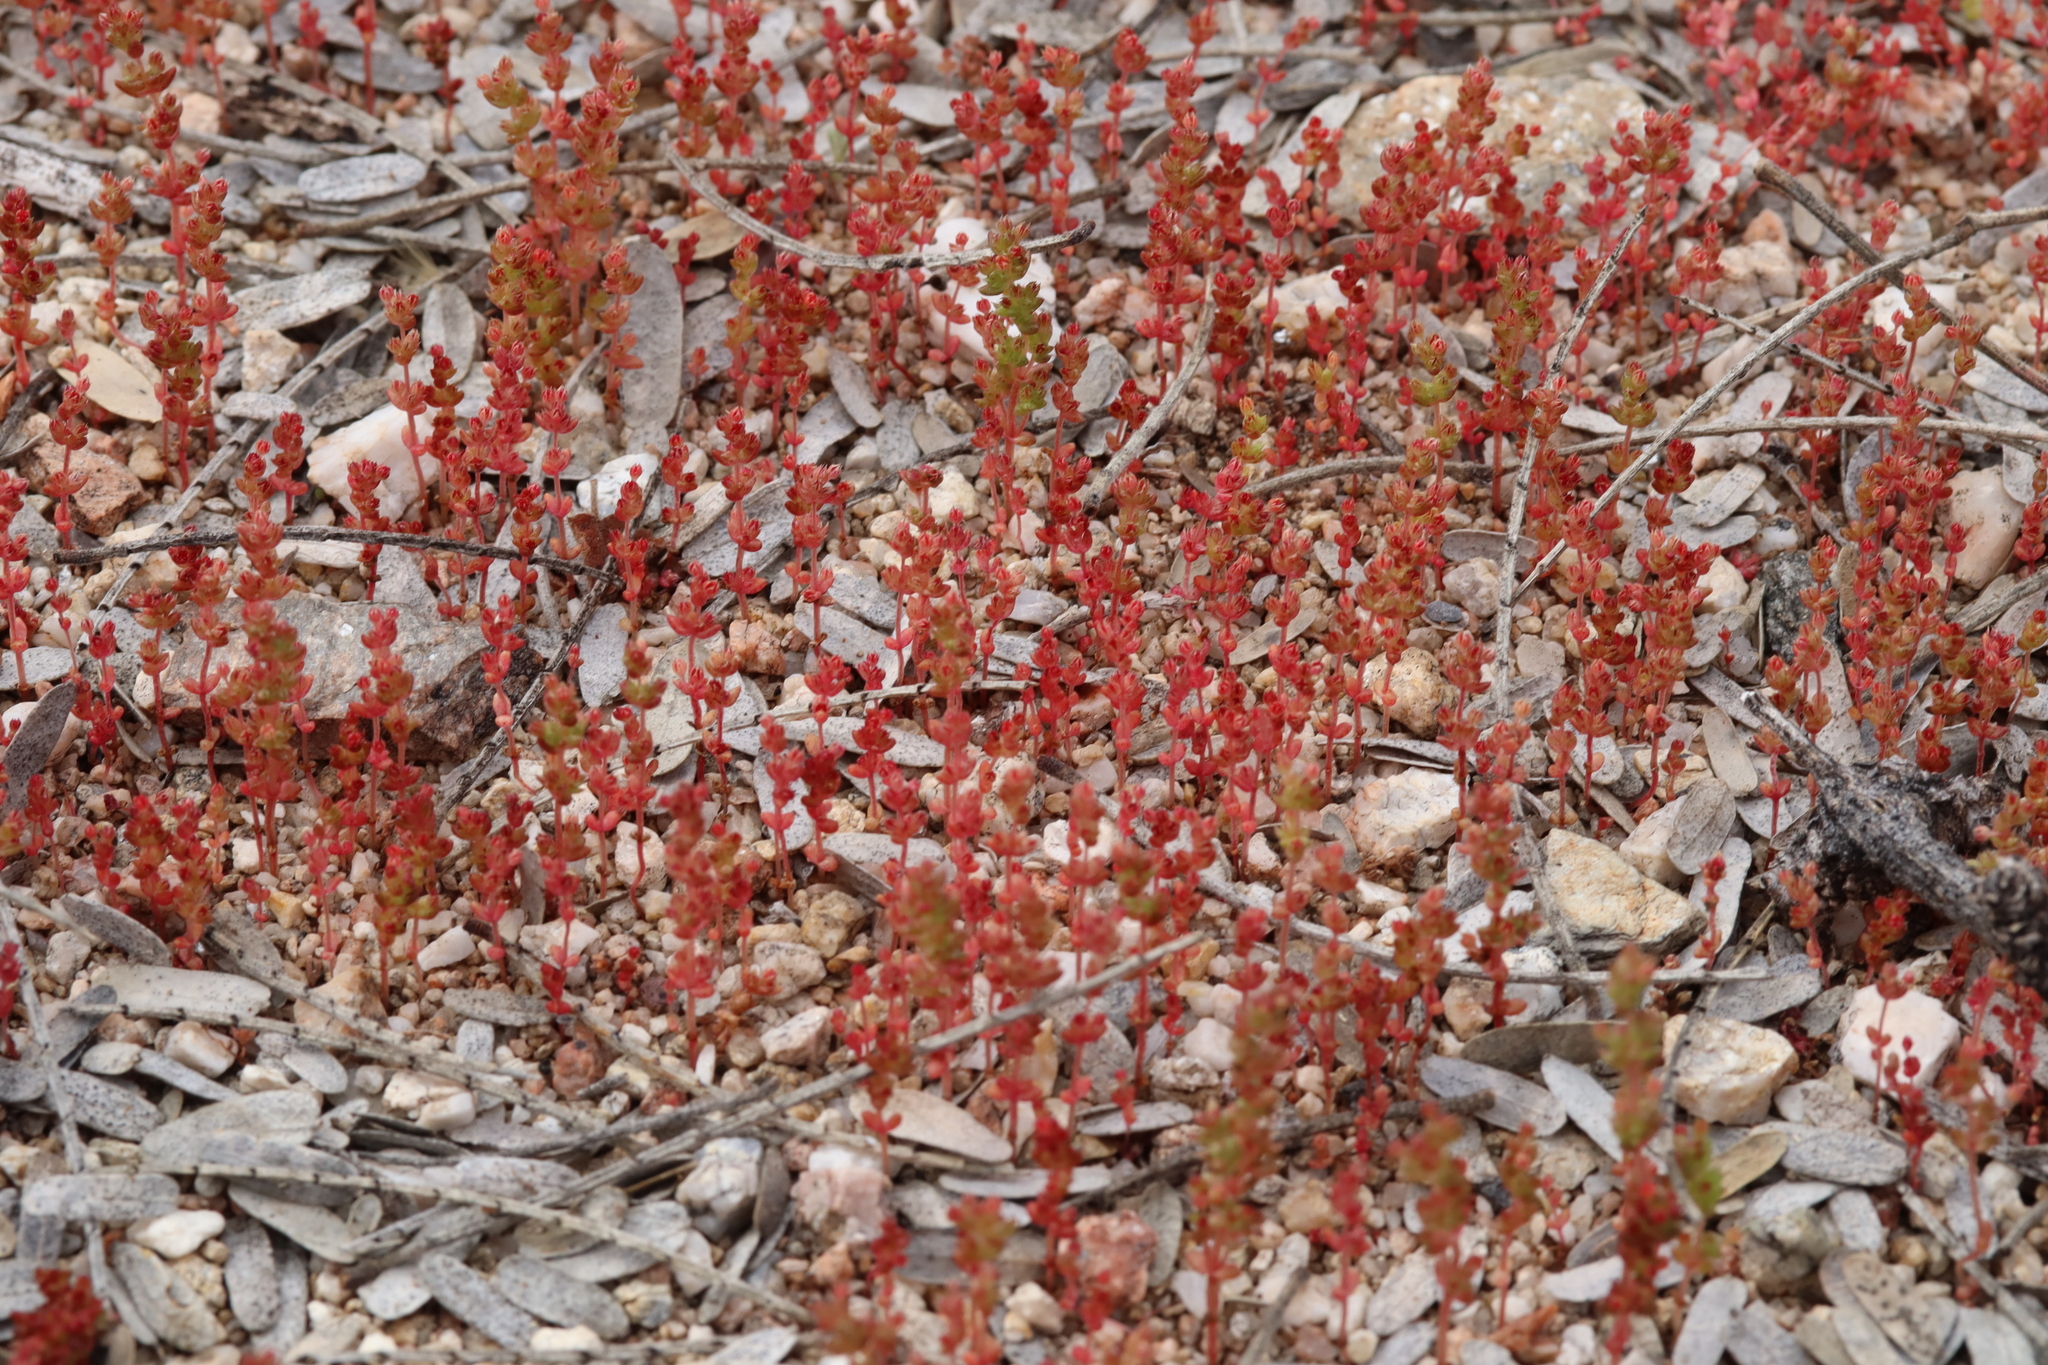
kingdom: Plantae
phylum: Tracheophyta
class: Magnoliopsida
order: Saxifragales
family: Crassulaceae
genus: Crassula
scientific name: Crassula connata
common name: Erect pygmyweed
